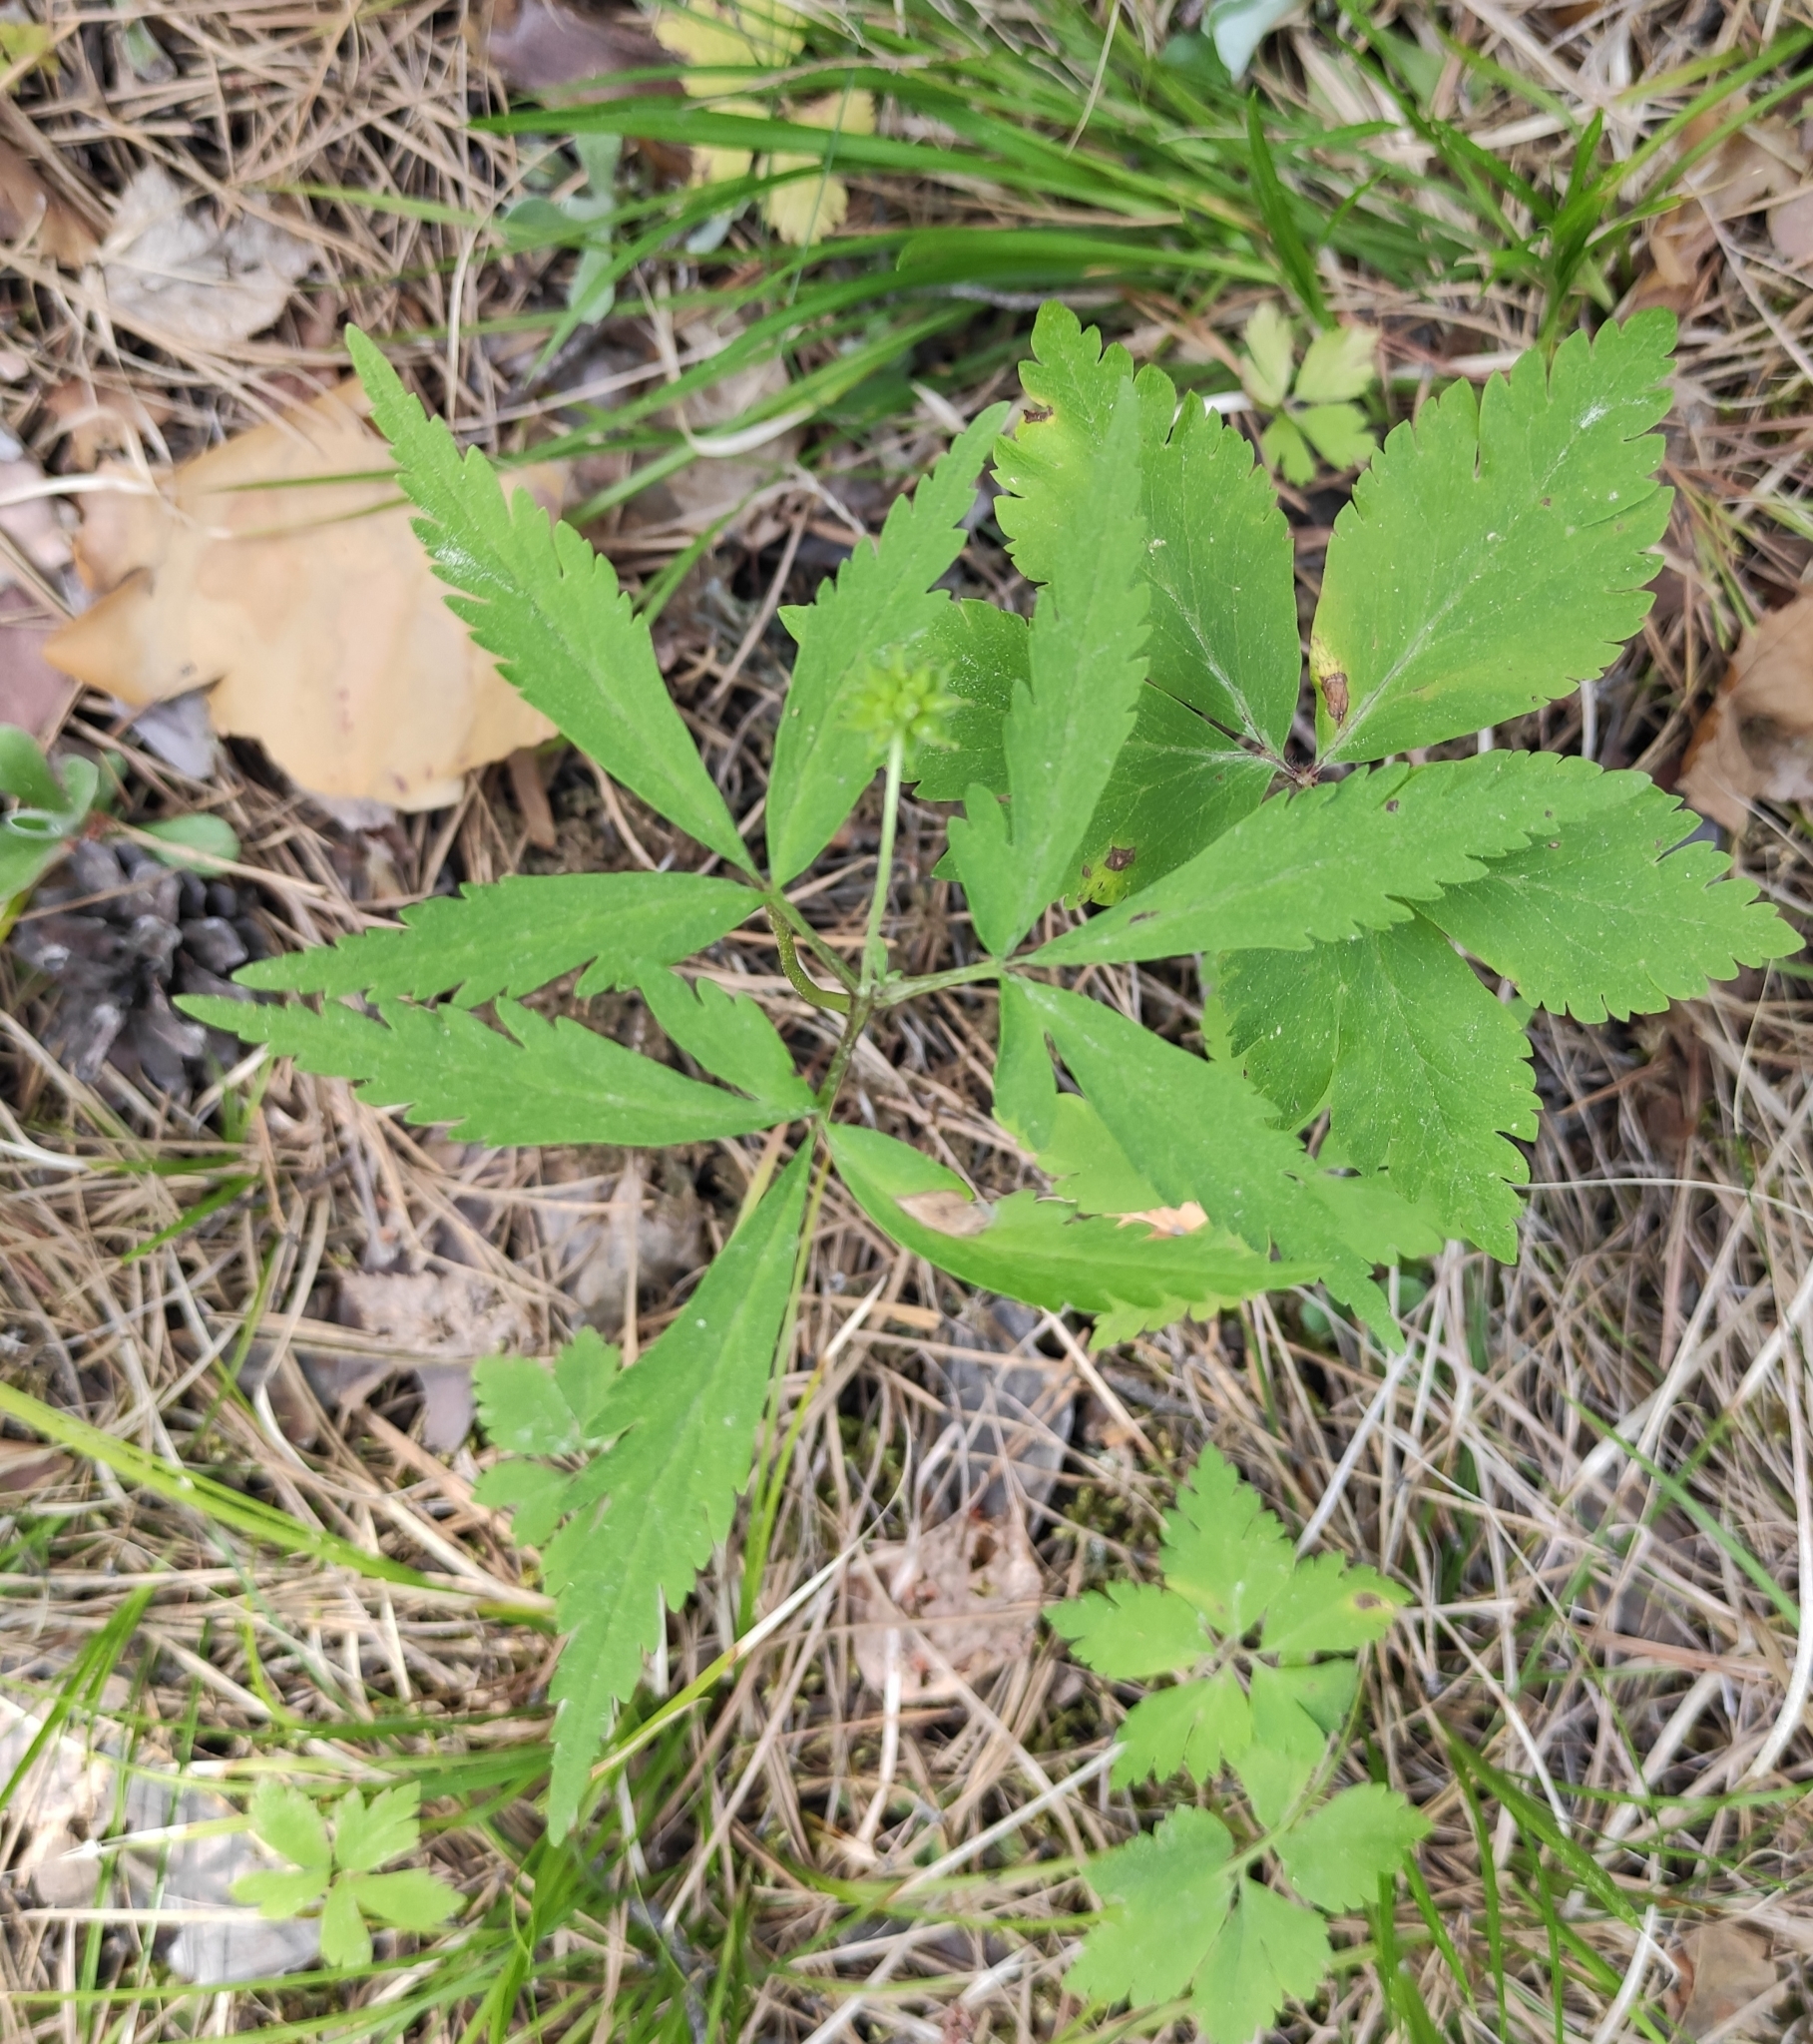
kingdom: Plantae
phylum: Tracheophyta
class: Magnoliopsida
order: Ranunculales
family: Ranunculaceae
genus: Anemone
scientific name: Anemone reflexa
